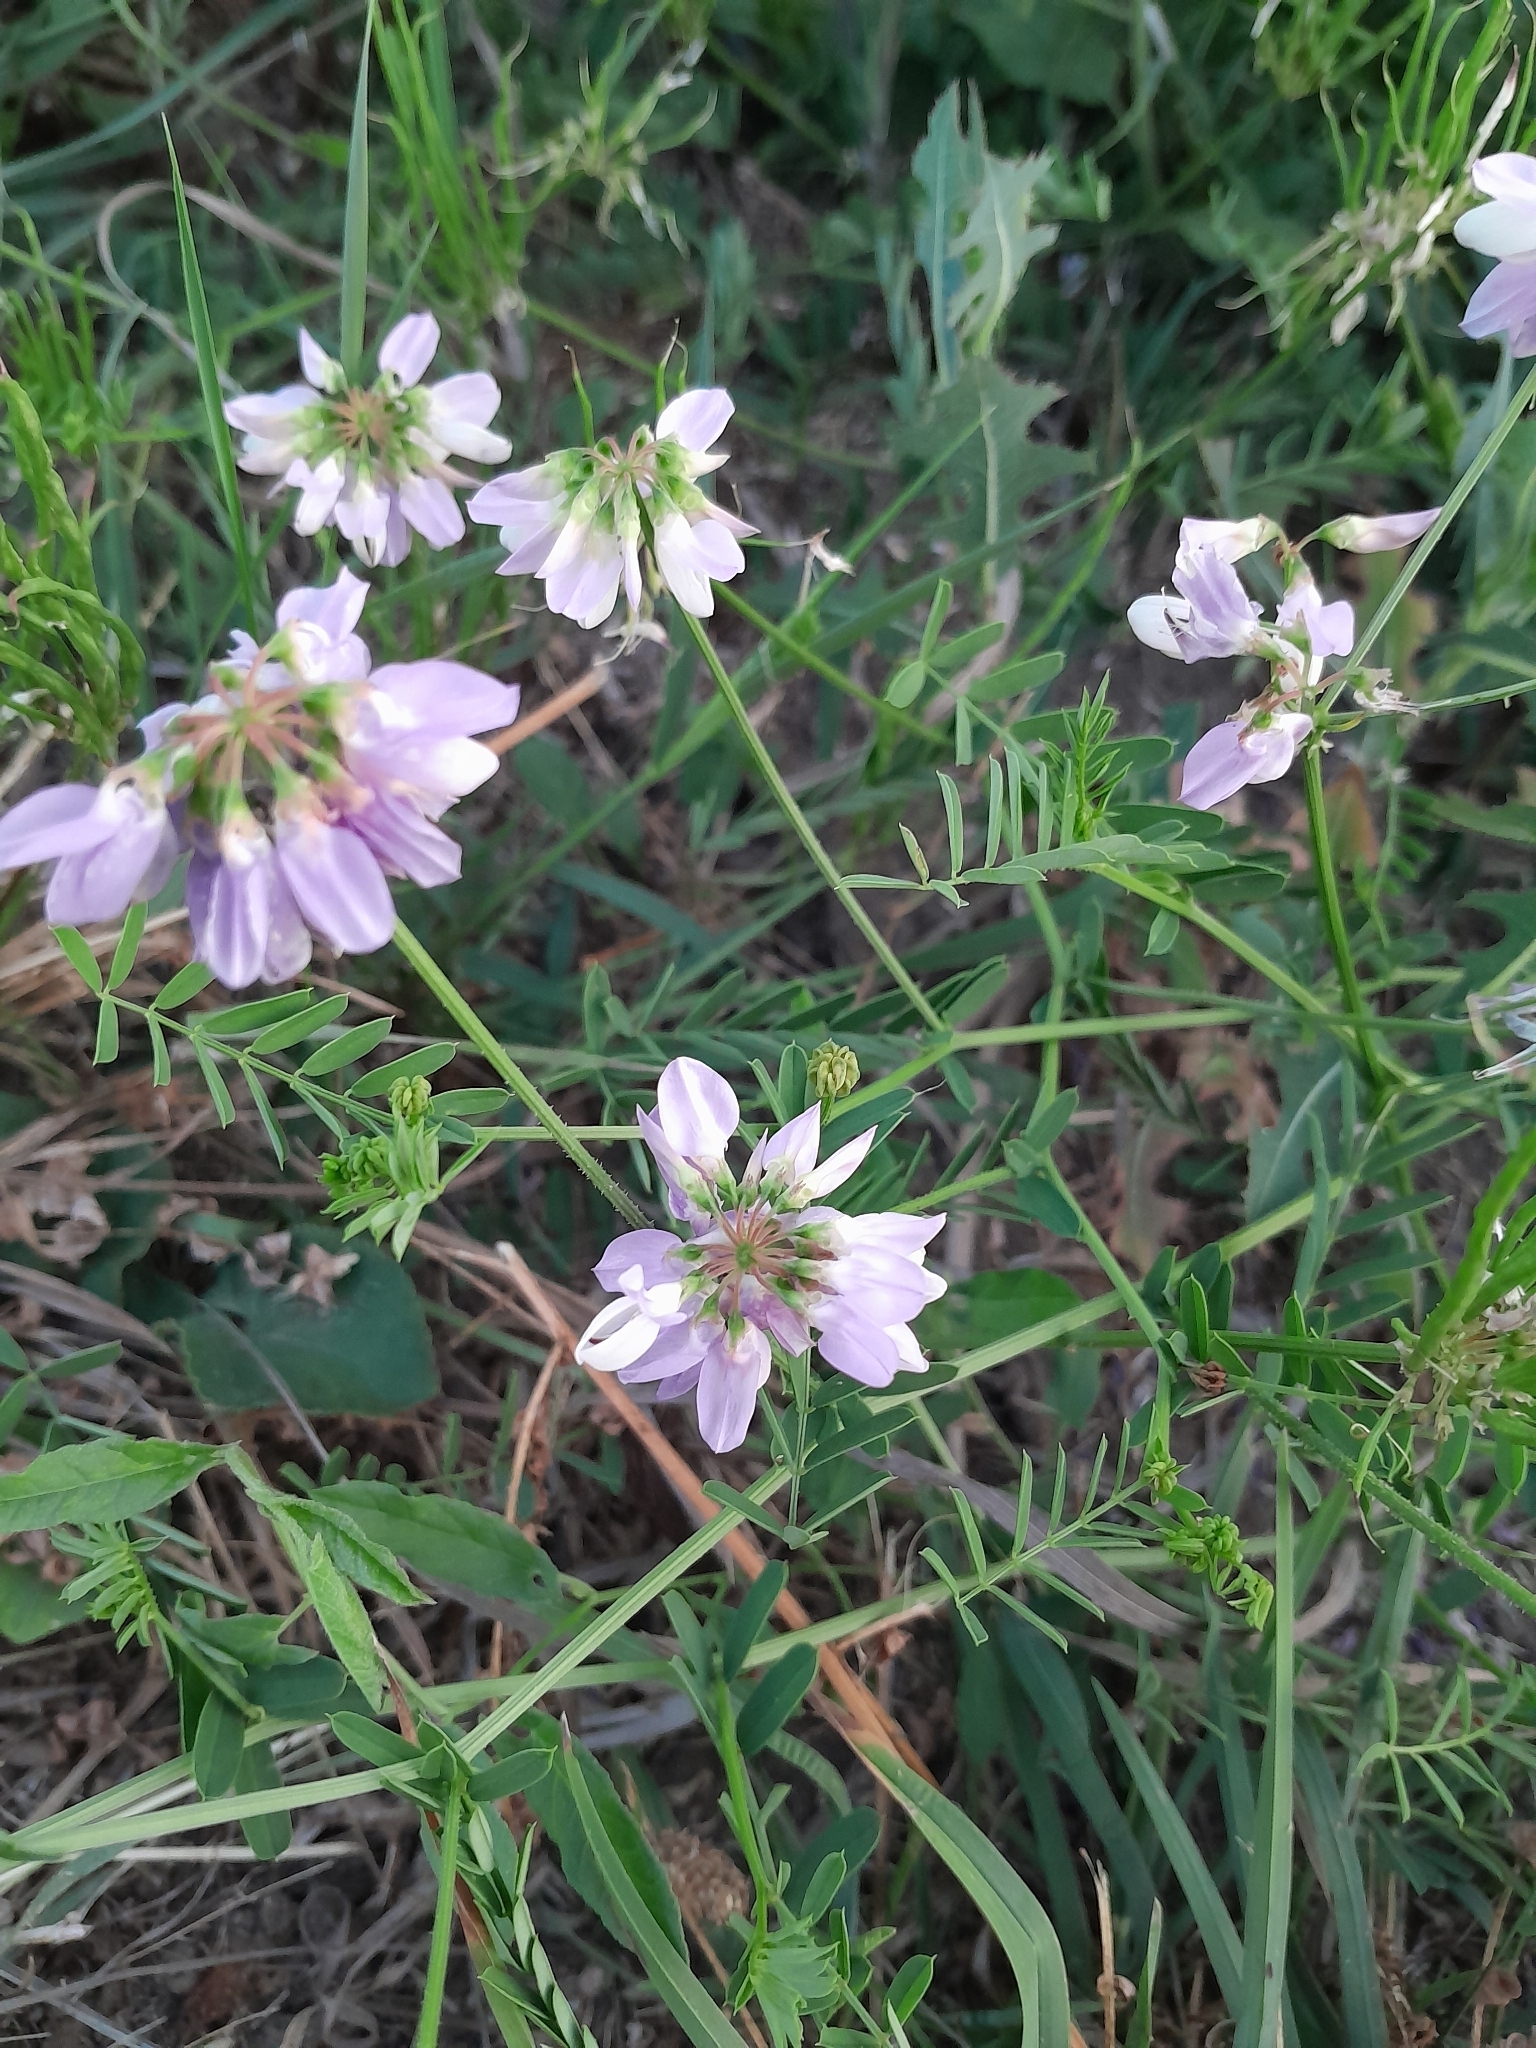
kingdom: Plantae
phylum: Tracheophyta
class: Magnoliopsida
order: Fabales
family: Fabaceae
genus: Coronilla
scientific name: Coronilla varia
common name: Crownvetch
